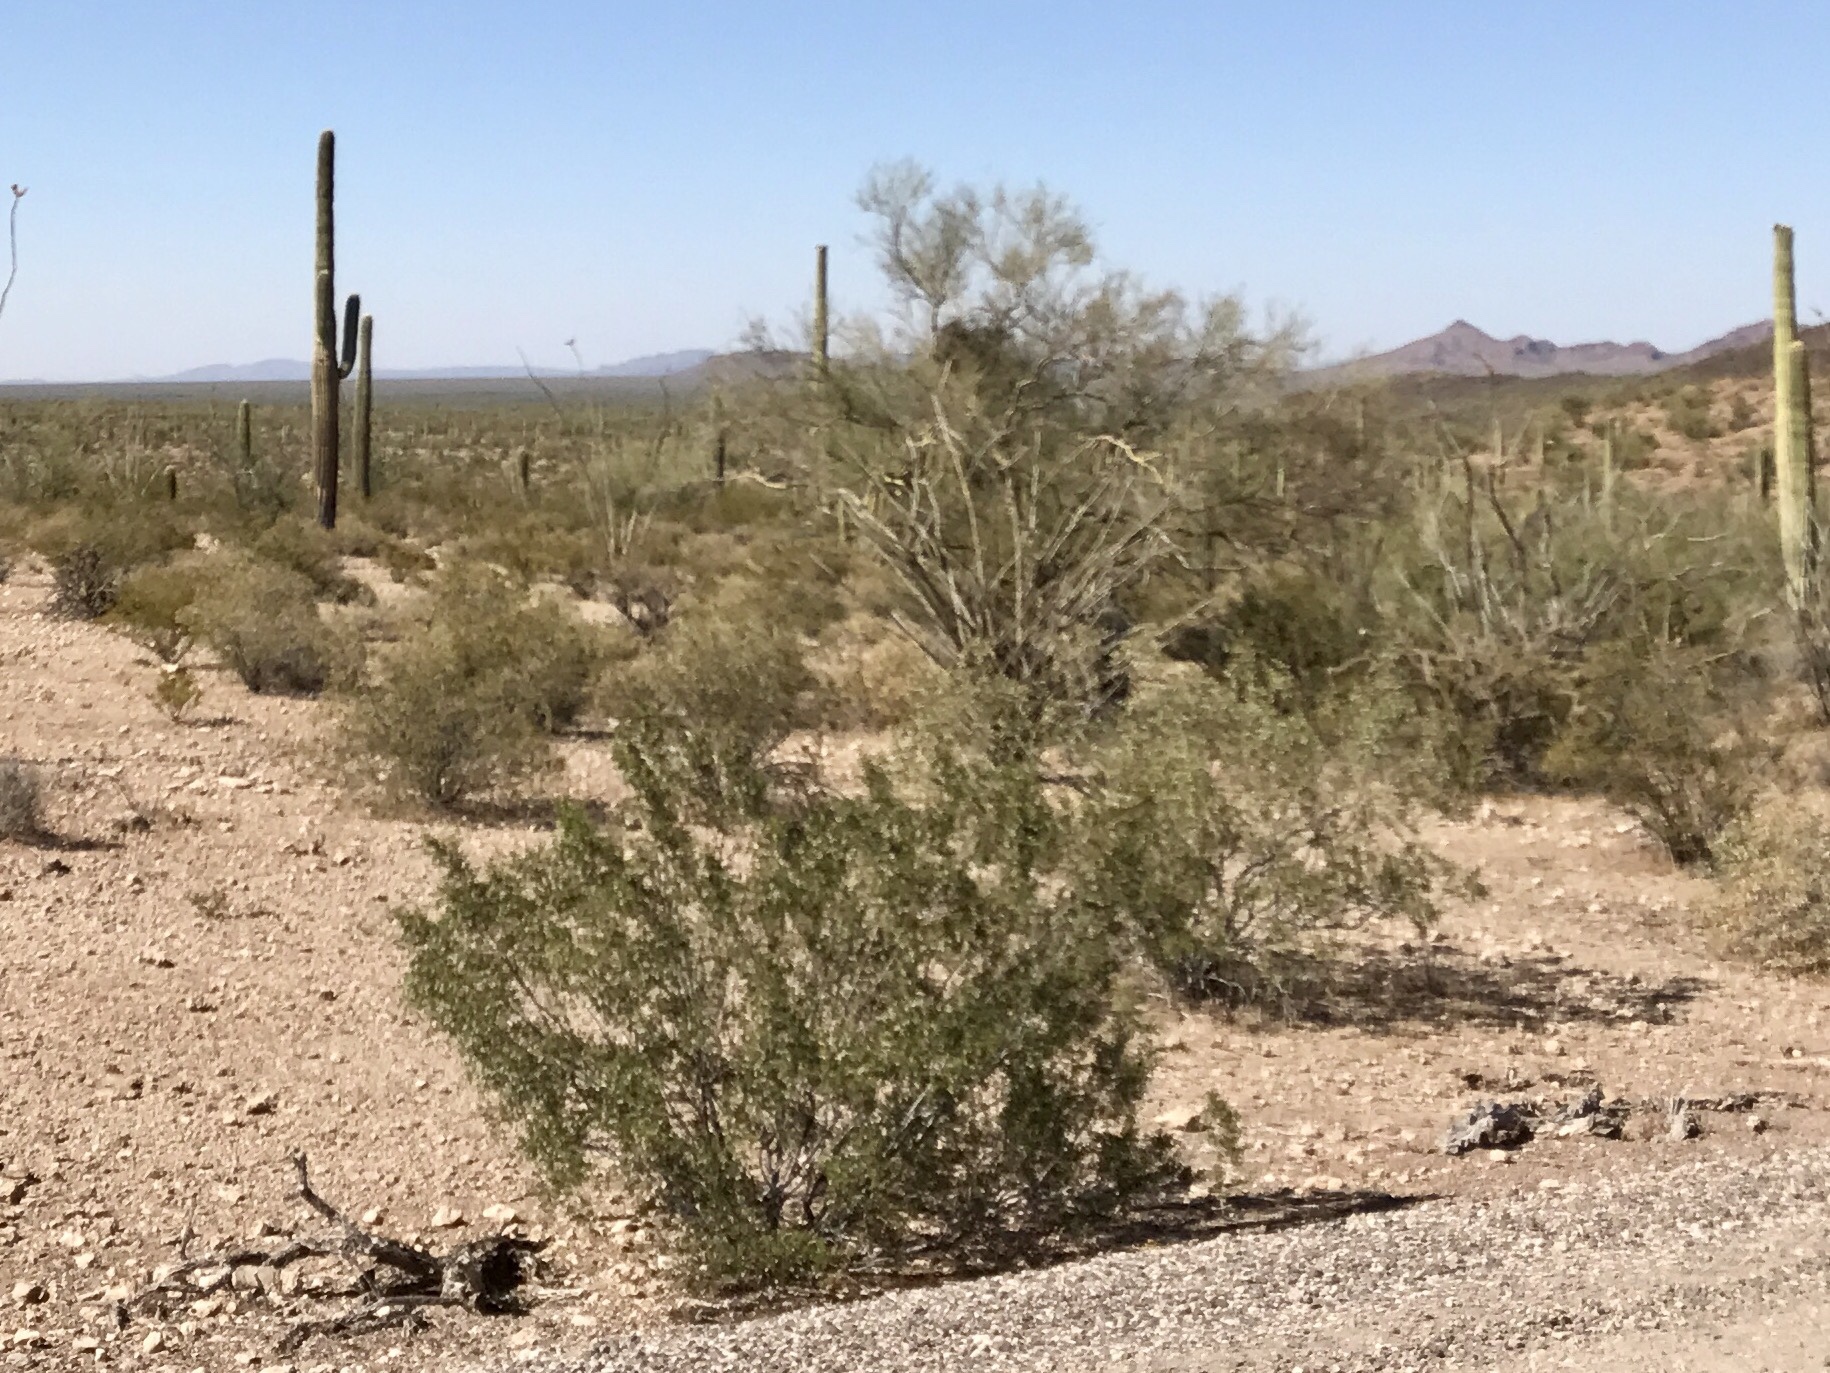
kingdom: Plantae
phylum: Tracheophyta
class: Magnoliopsida
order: Zygophyllales
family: Zygophyllaceae
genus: Larrea
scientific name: Larrea tridentata
